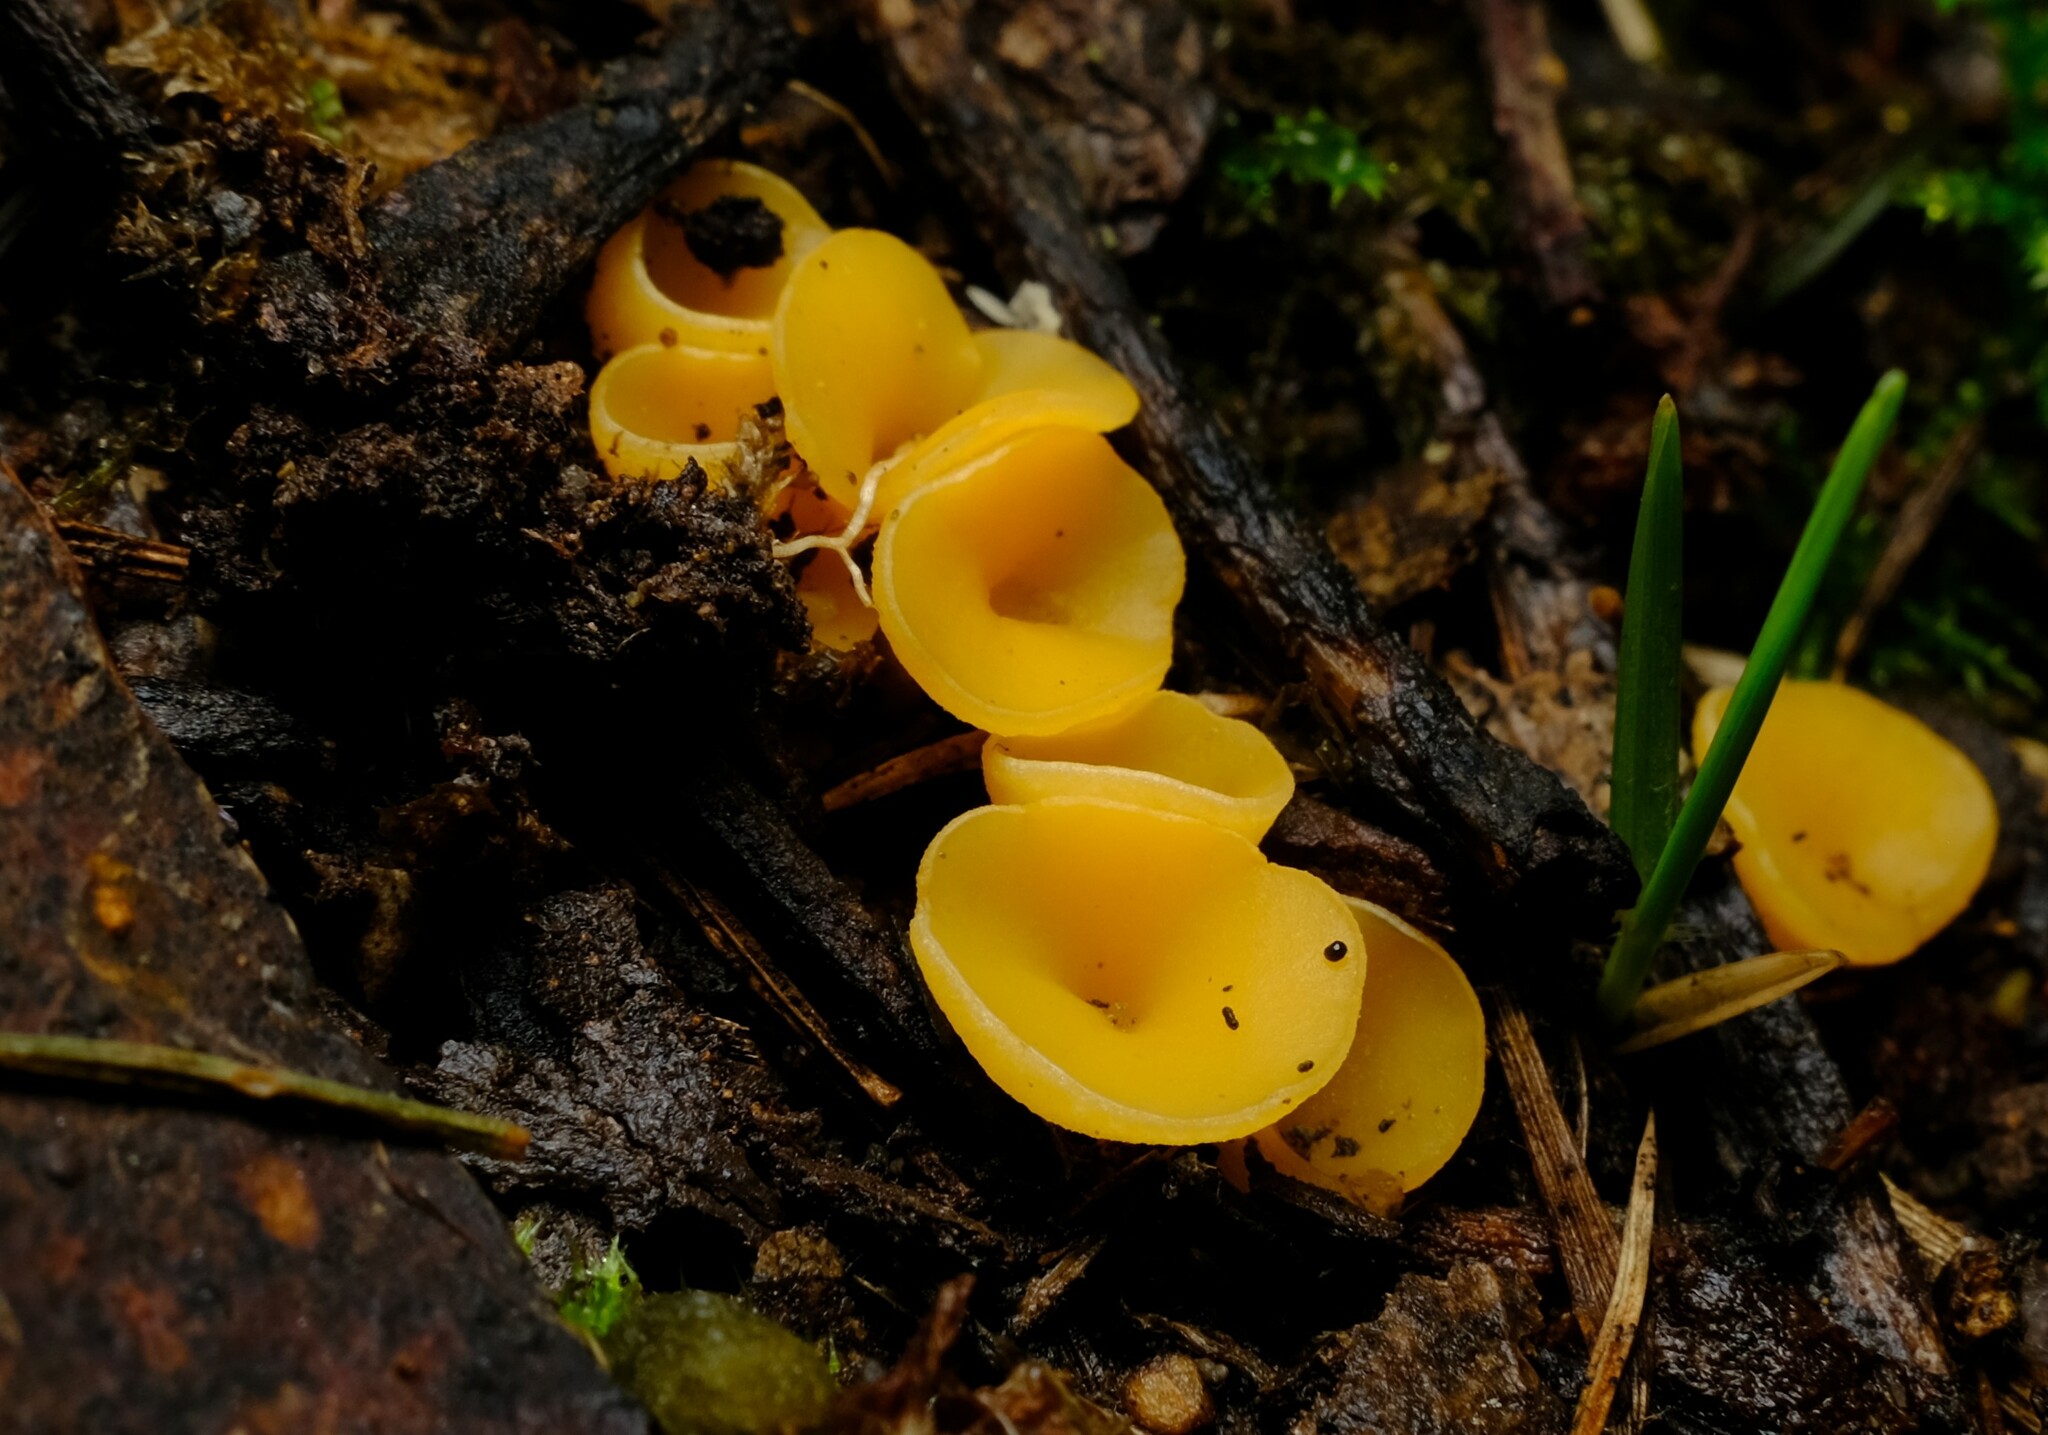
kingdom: Fungi
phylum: Ascomycota
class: Leotiomycetes
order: Helotiales
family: Helotiaceae
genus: Phaeohelotium
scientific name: Phaeohelotium baileyanum
